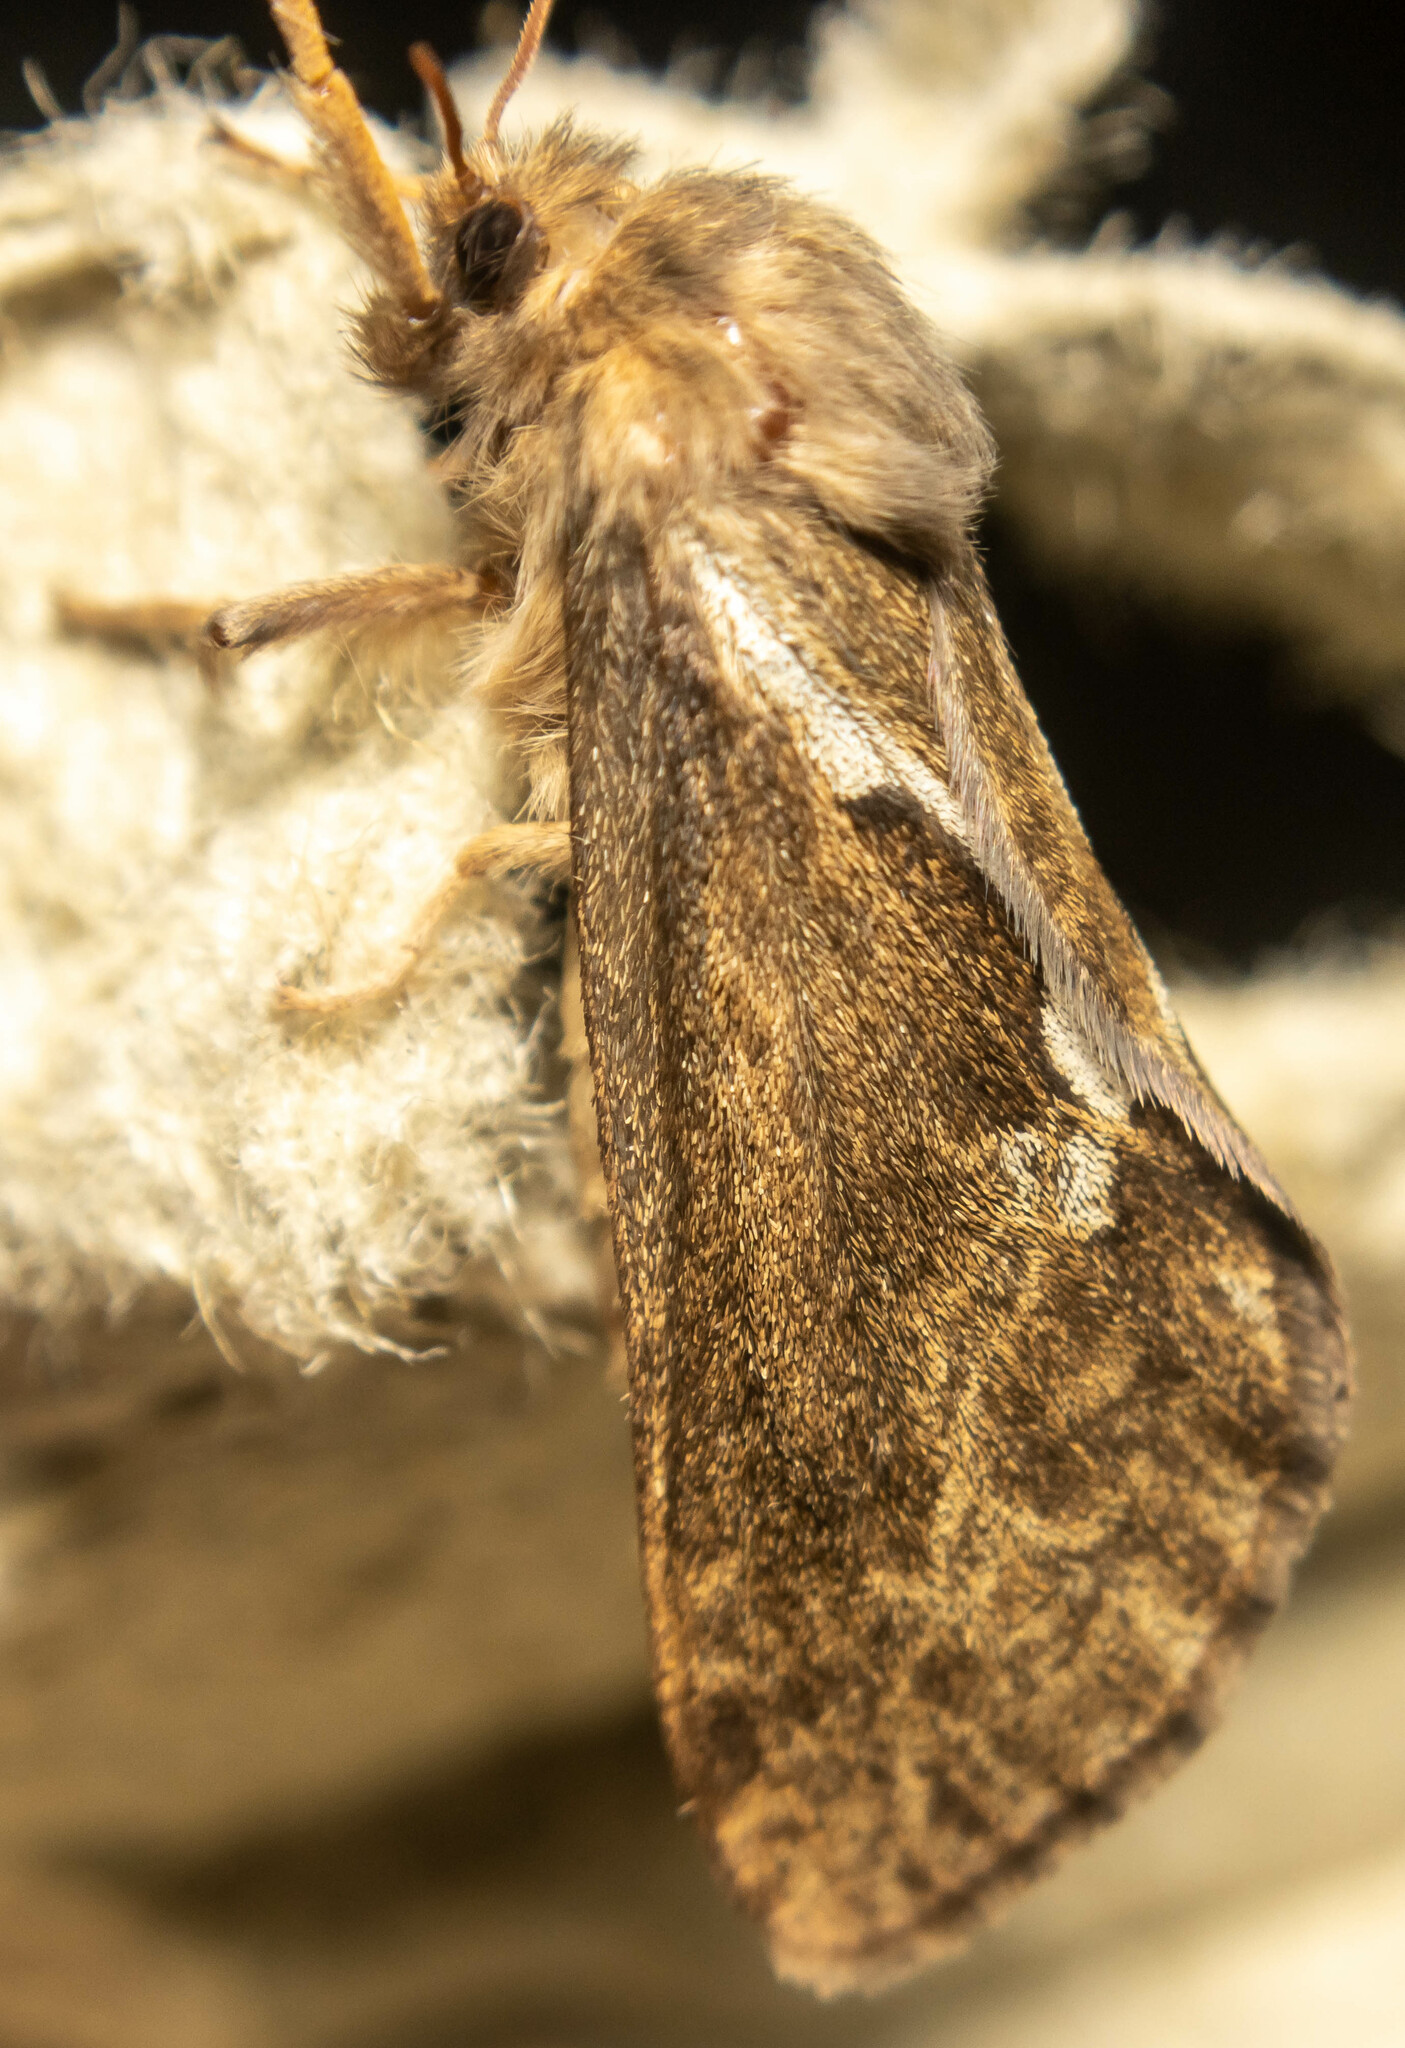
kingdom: Animalia
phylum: Arthropoda
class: Insecta
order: Lepidoptera
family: Hepialidae
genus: Korscheltellus
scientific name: Korscheltellus lupulina
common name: Common swift
